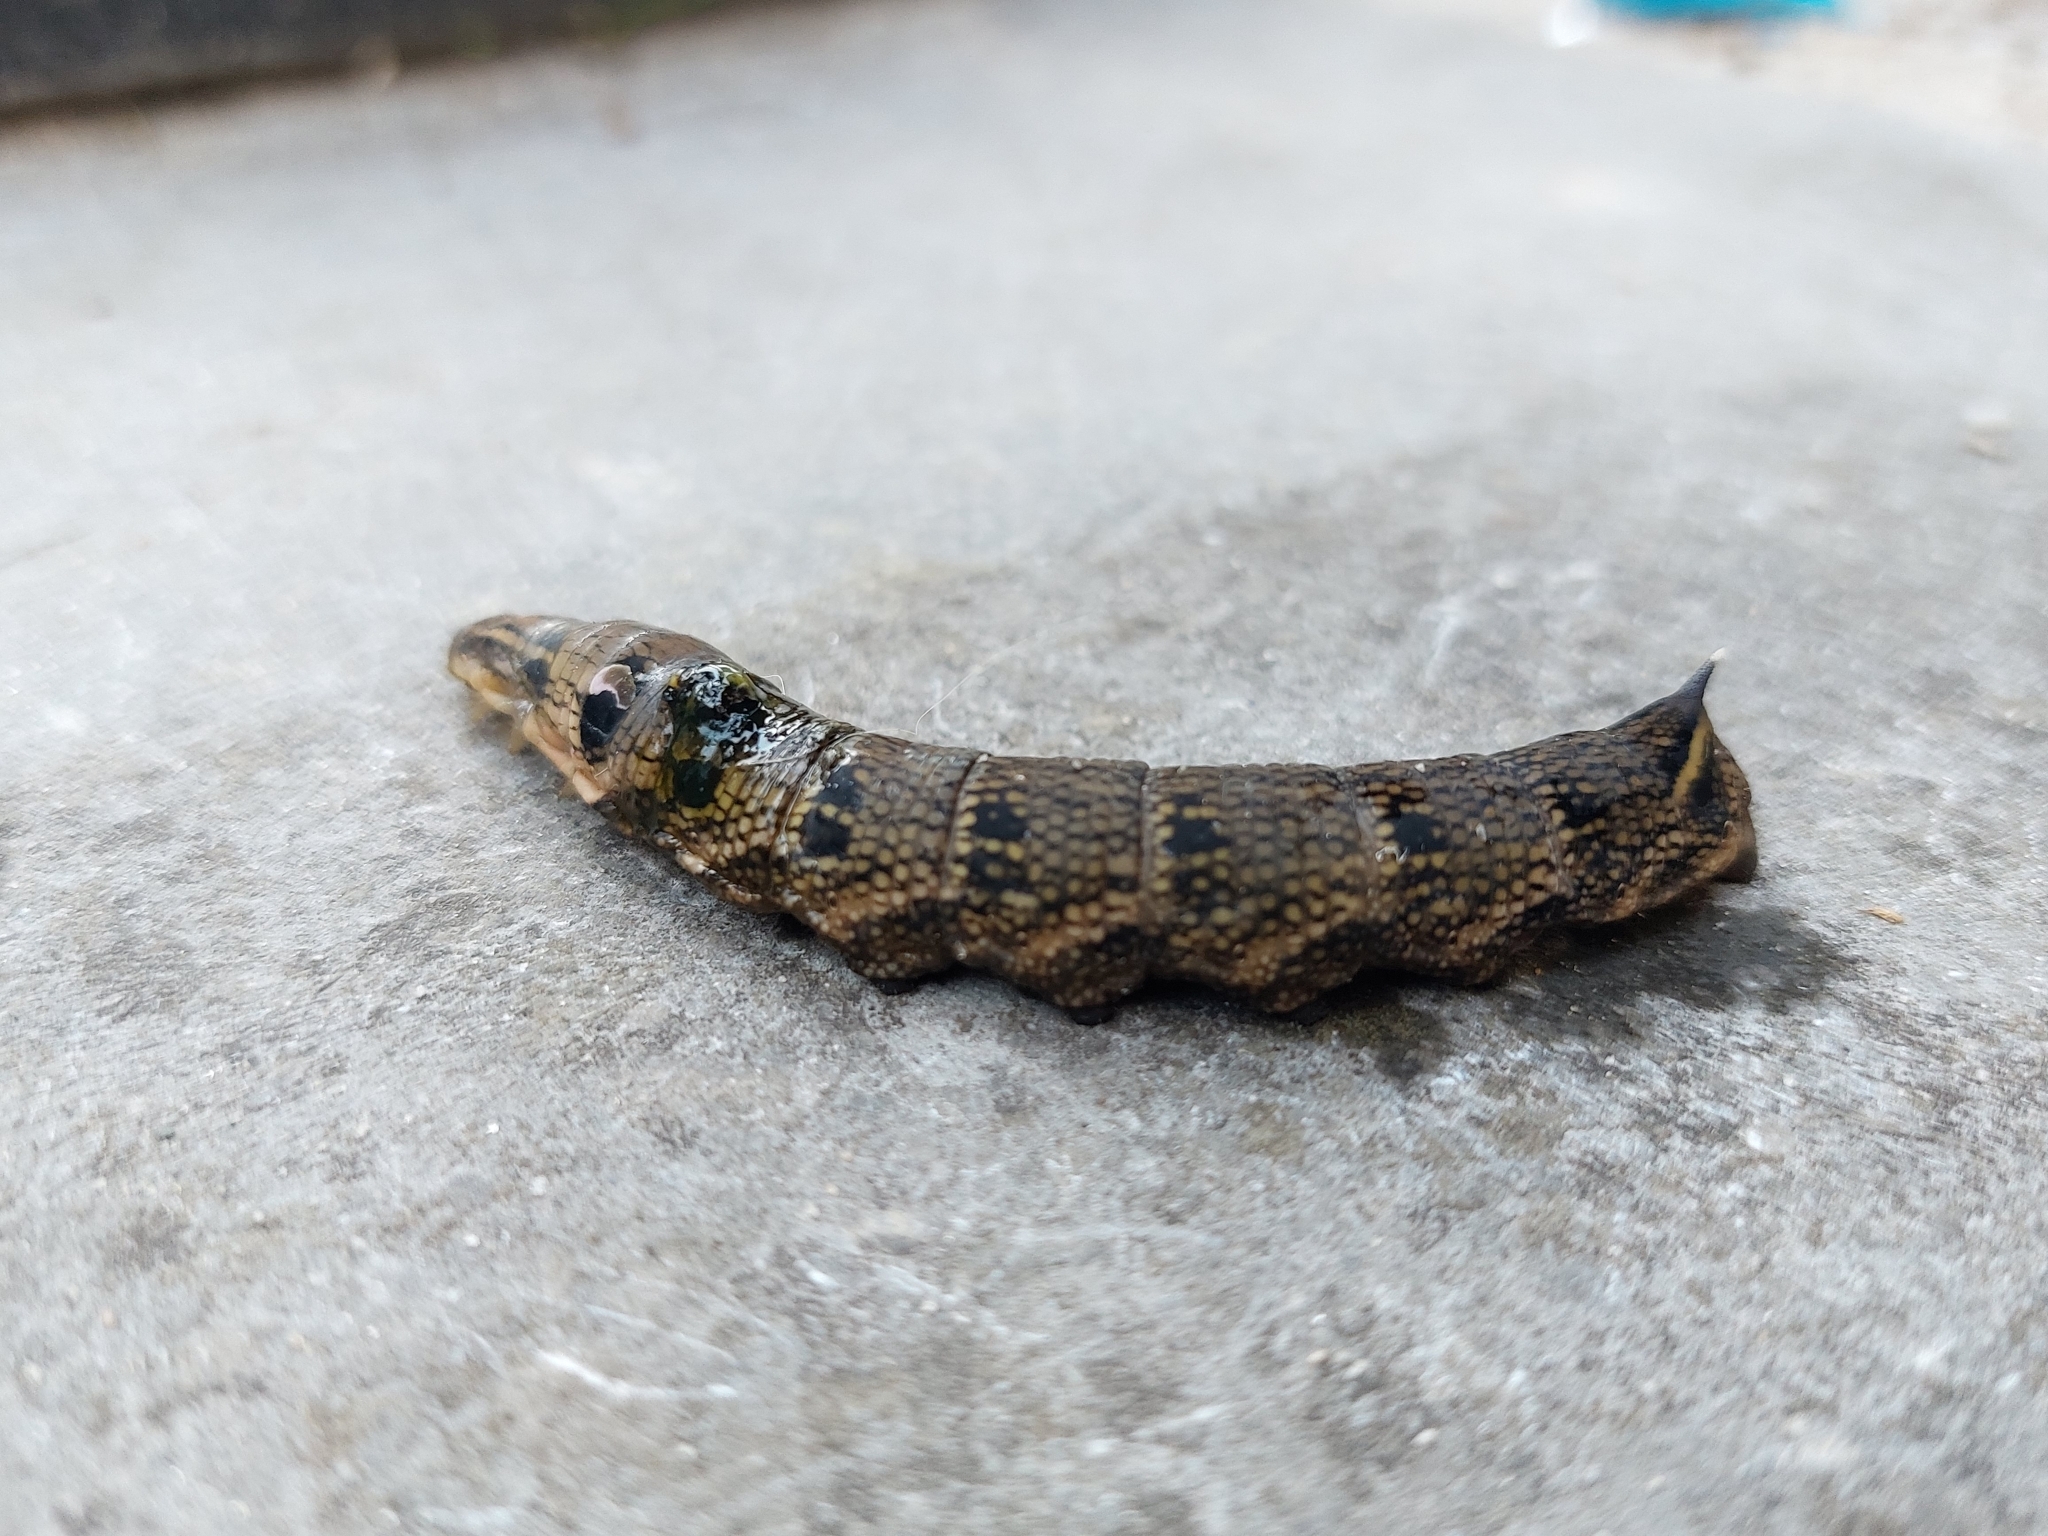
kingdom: Animalia
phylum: Arthropoda
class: Insecta
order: Lepidoptera
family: Sphingidae
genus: Deilephila
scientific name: Deilephila elpenor
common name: Elephant hawk-moth
